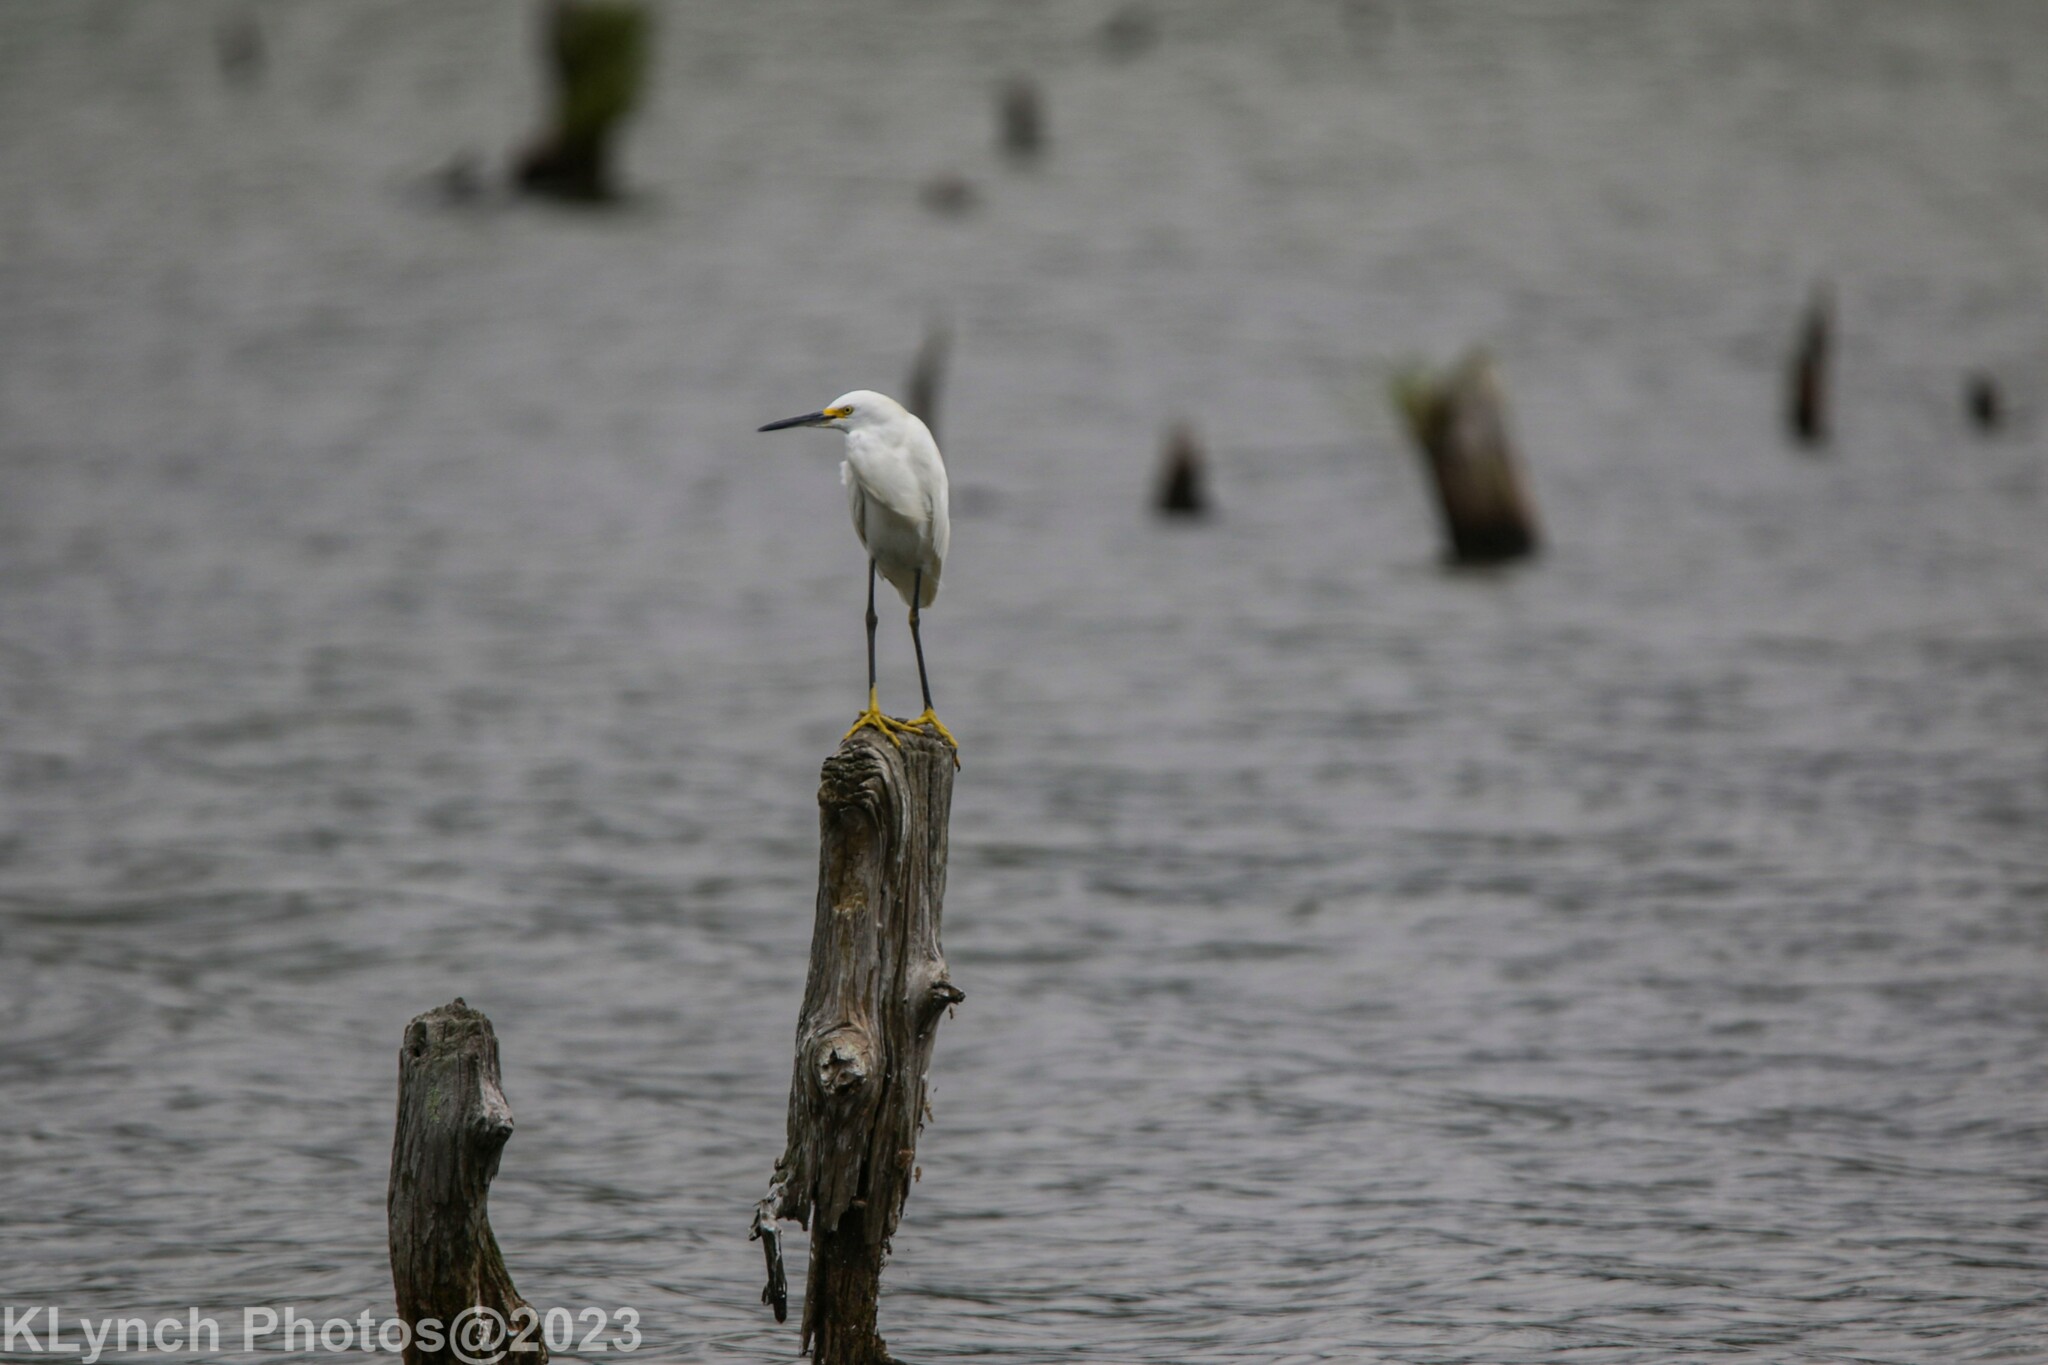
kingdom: Animalia
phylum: Chordata
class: Aves
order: Pelecaniformes
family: Ardeidae
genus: Egretta
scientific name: Egretta thula
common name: Snowy egret
